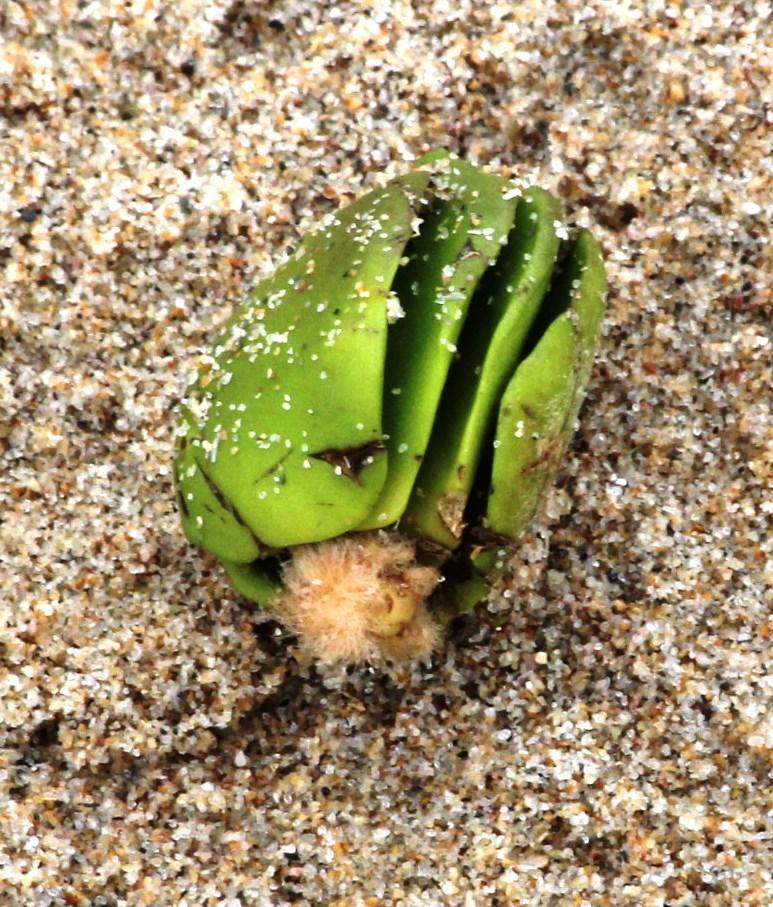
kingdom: Plantae
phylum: Tracheophyta
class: Magnoliopsida
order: Lamiales
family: Acanthaceae
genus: Avicennia
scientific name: Avicennia marina
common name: Gray mangrove
